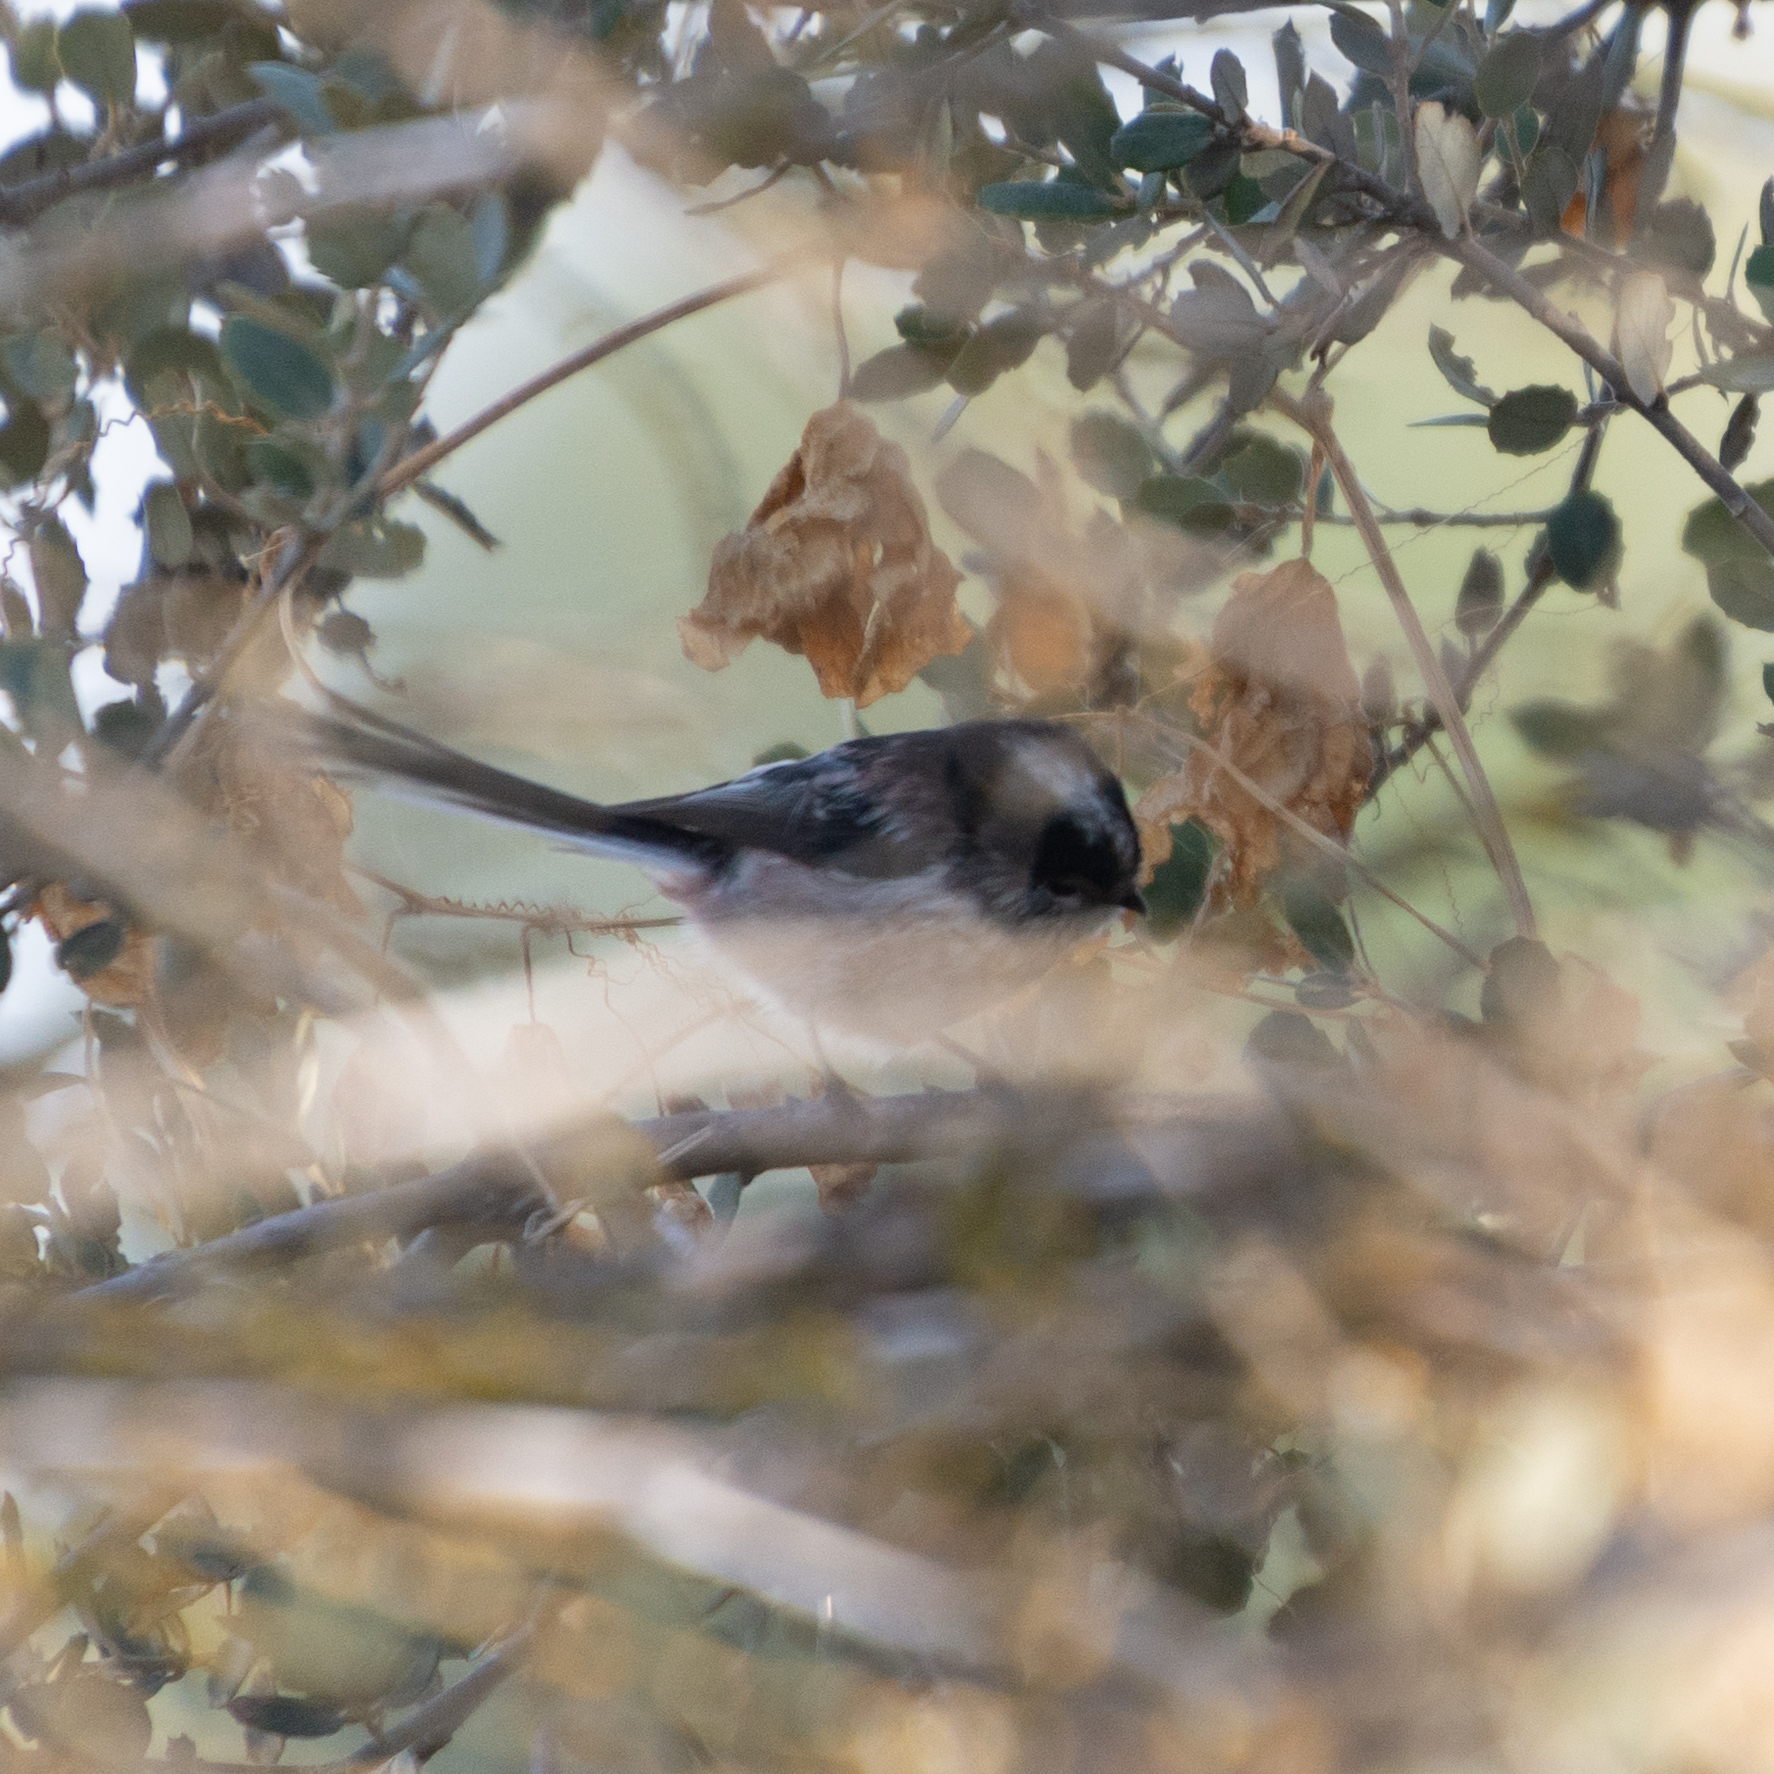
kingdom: Animalia
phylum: Chordata
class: Aves
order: Passeriformes
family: Aegithalidae
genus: Aegithalos
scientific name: Aegithalos caudatus
